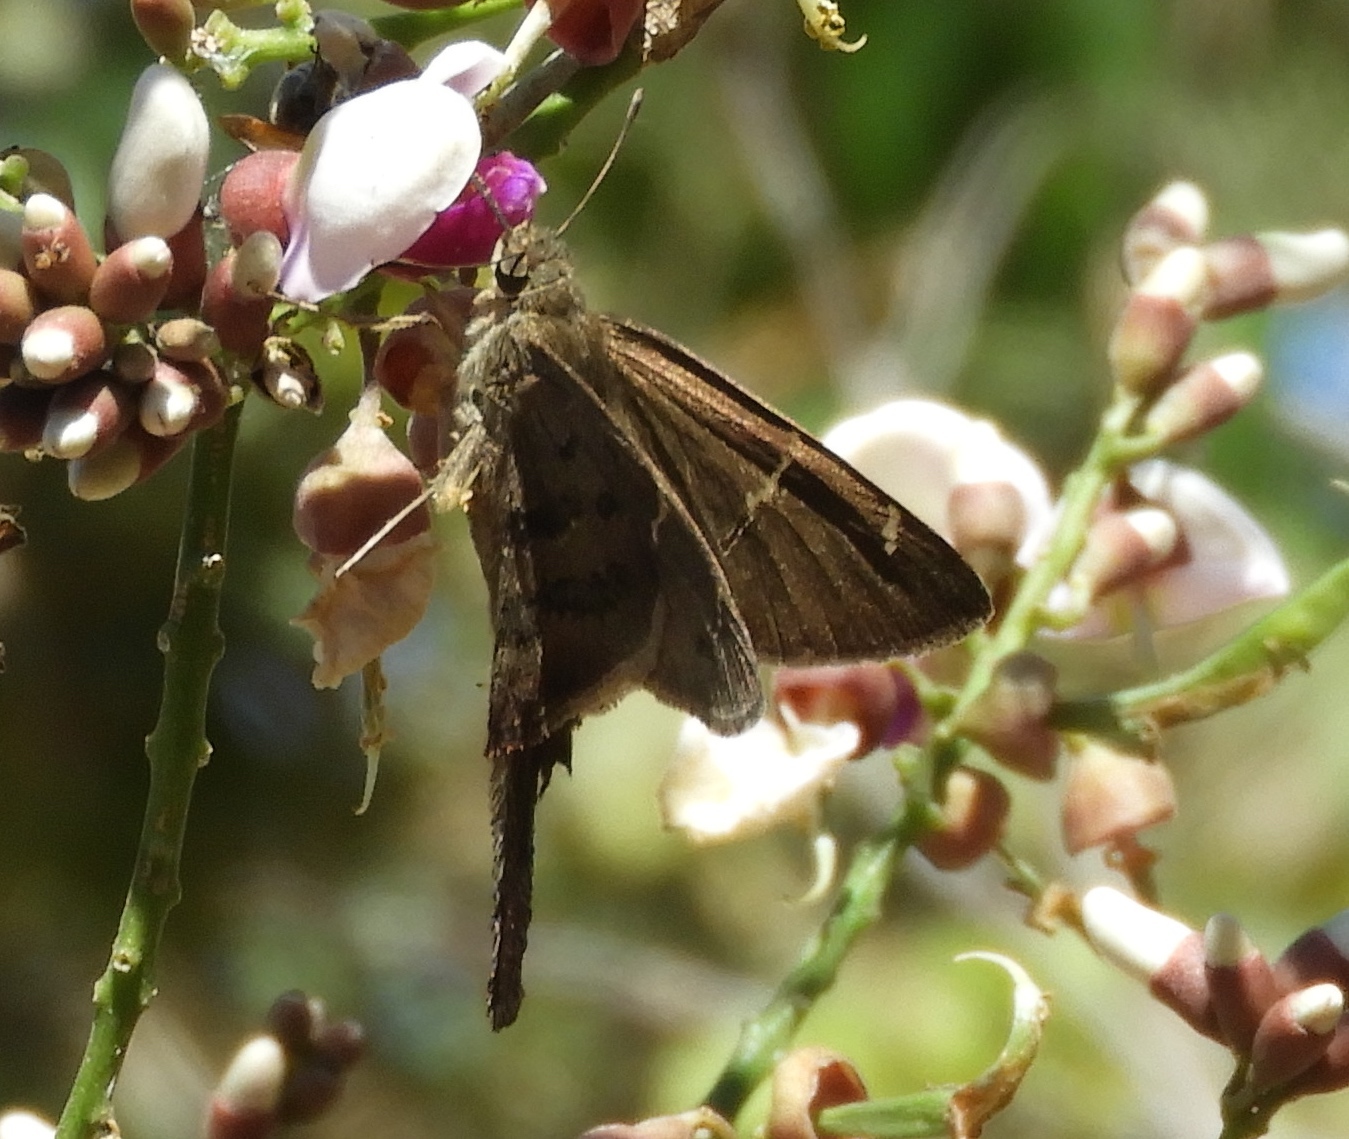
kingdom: Animalia
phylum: Arthropoda
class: Insecta
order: Lepidoptera
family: Hesperiidae
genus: Urbanus
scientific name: Urbanus simplicius
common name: Plain longtail
